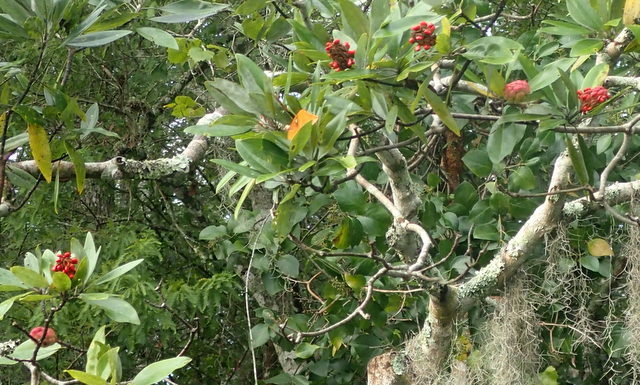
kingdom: Plantae
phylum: Tracheophyta
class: Magnoliopsida
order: Magnoliales
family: Magnoliaceae
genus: Magnolia
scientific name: Magnolia virginiana
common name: Swamp bay
